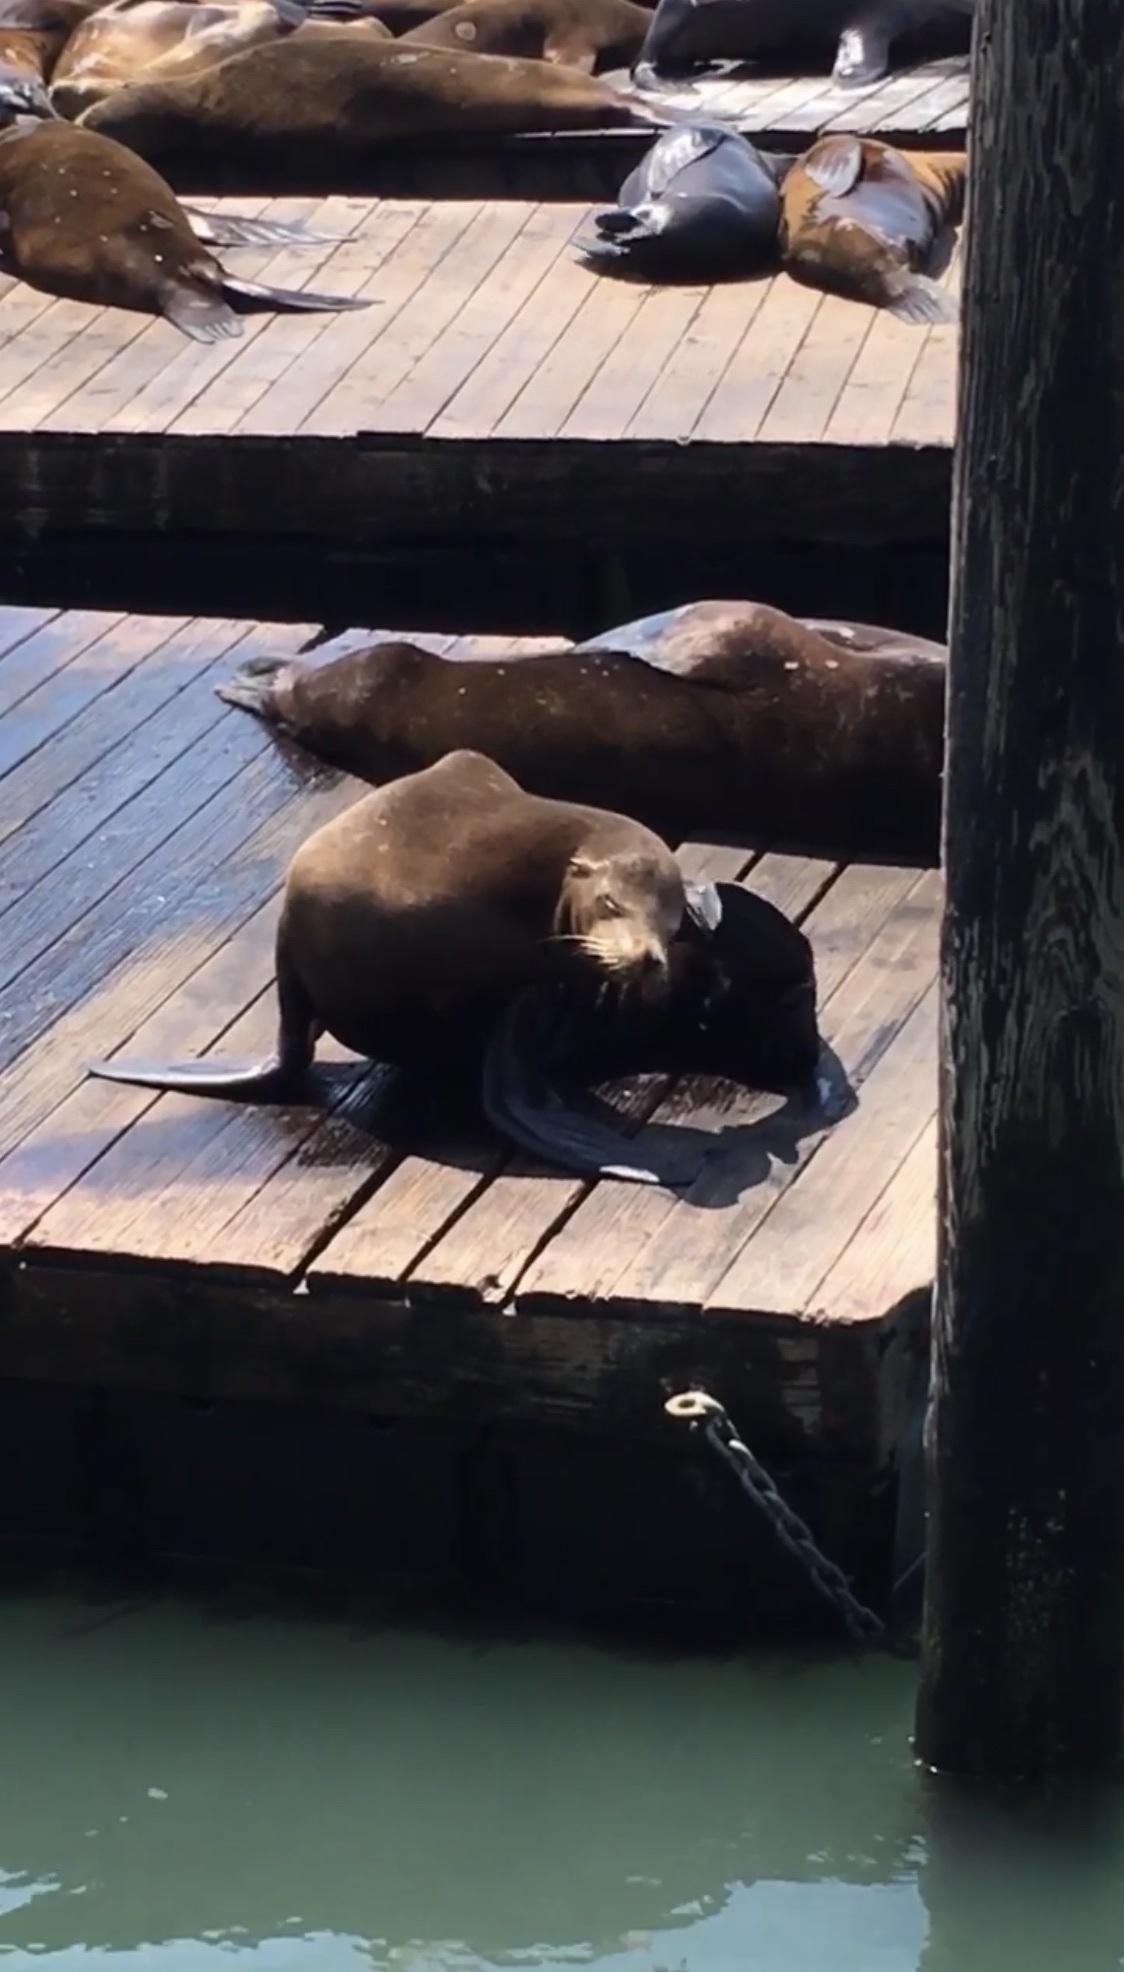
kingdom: Animalia
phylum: Chordata
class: Mammalia
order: Carnivora
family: Otariidae
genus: Zalophus
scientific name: Zalophus californianus
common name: California sea lion
